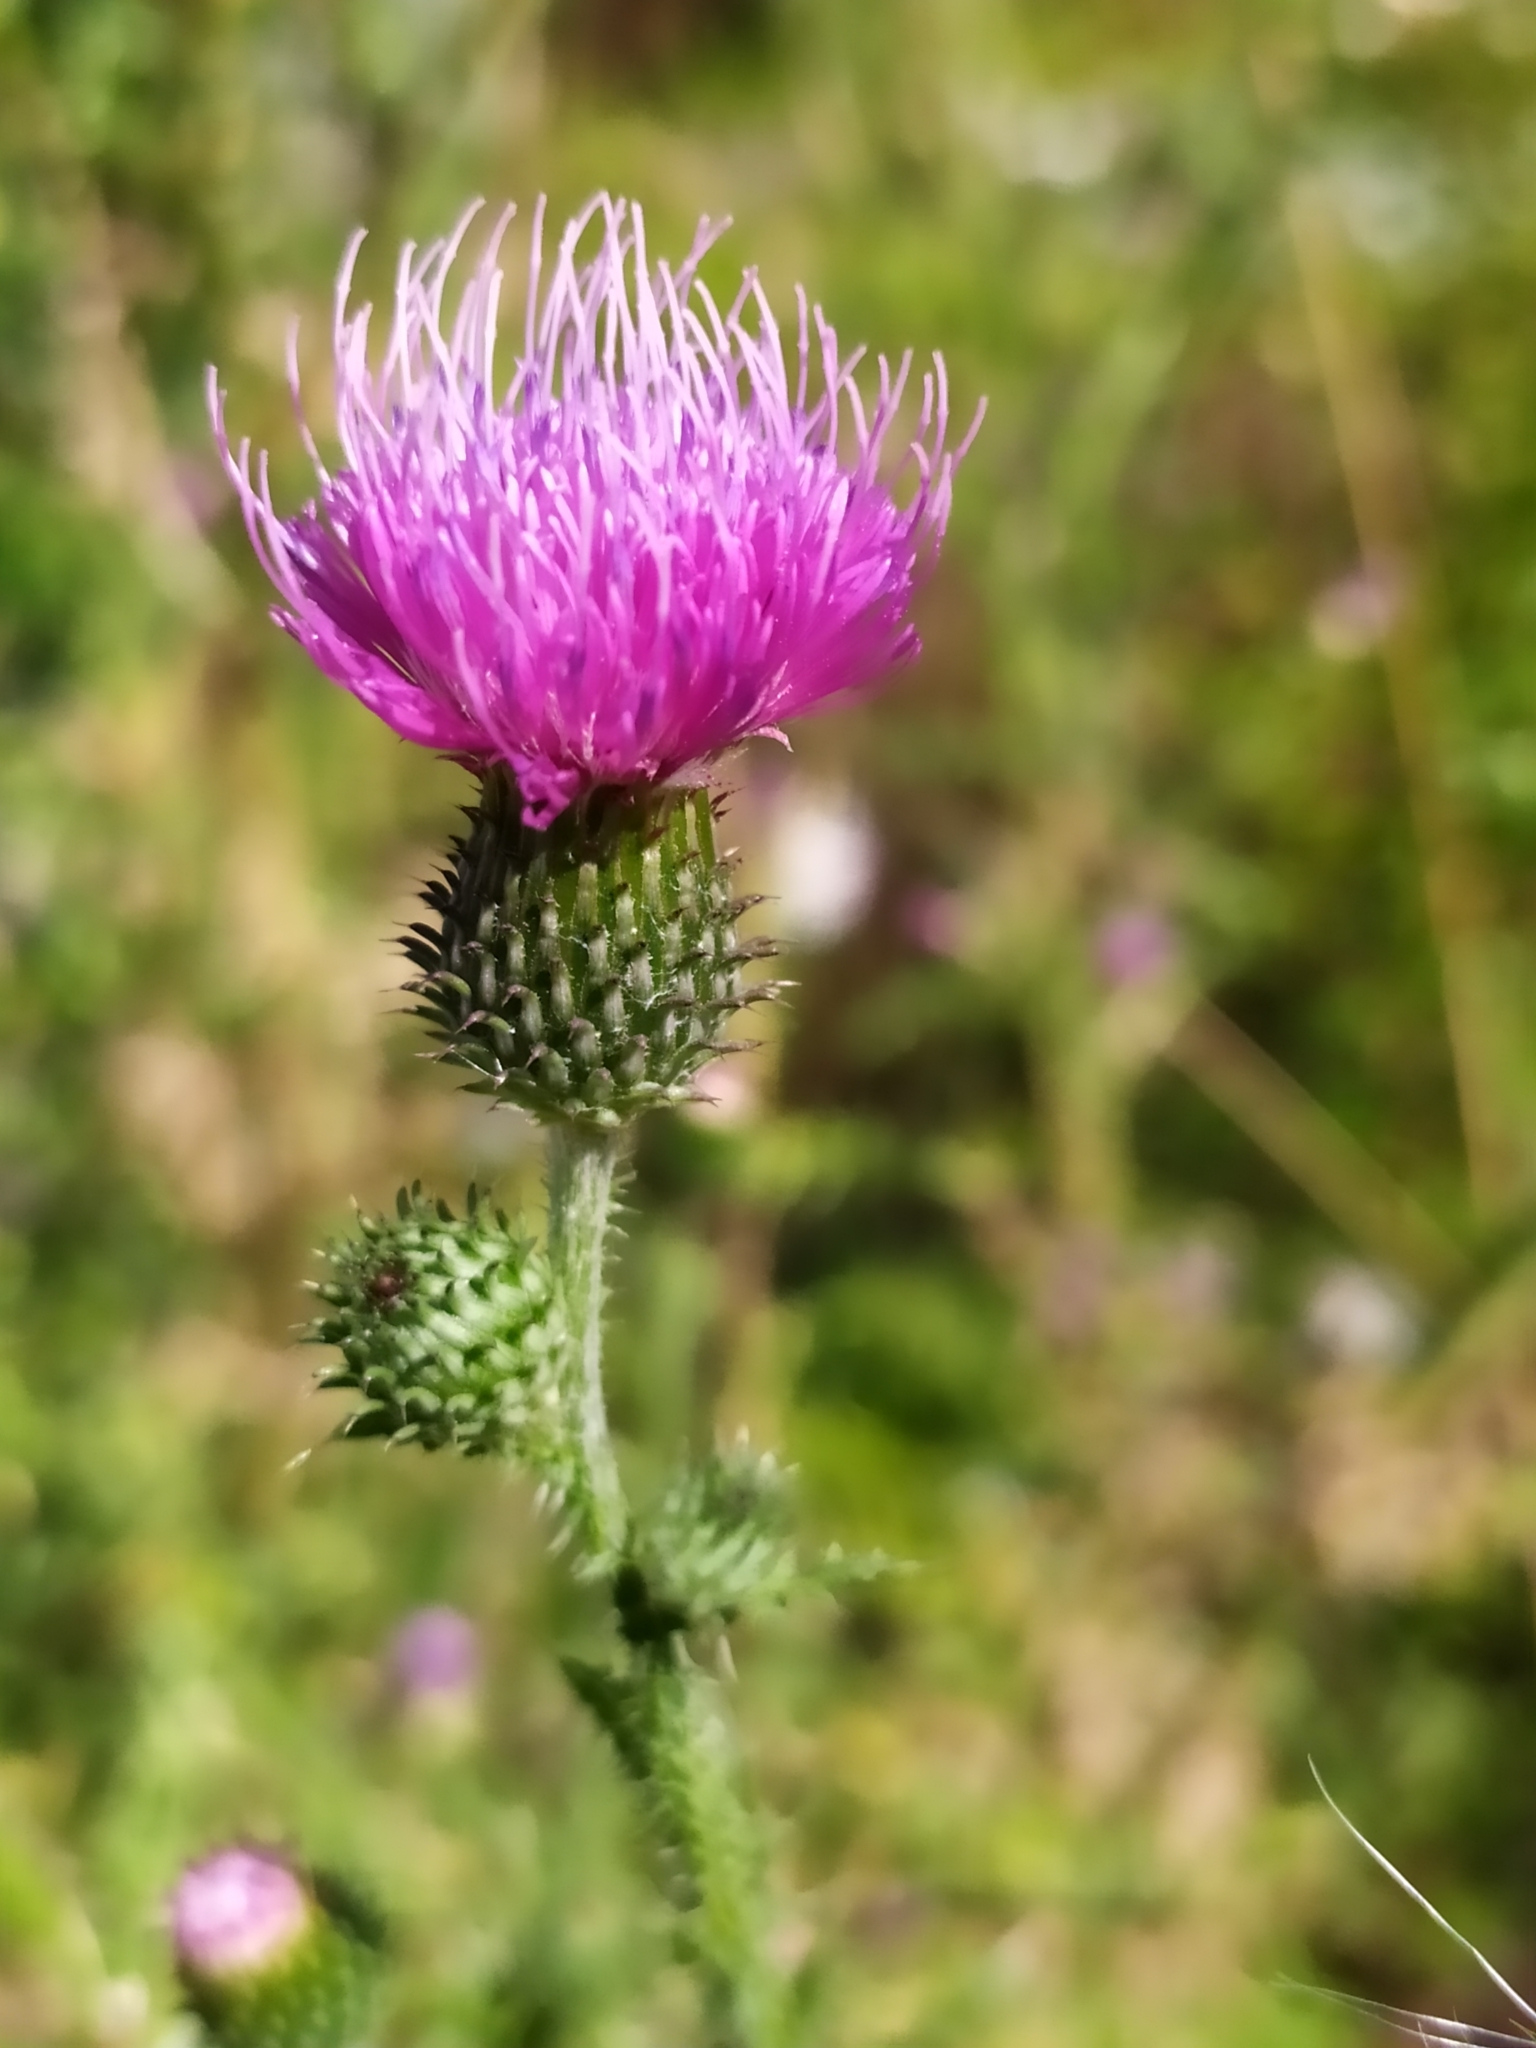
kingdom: Plantae
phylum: Tracheophyta
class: Magnoliopsida
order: Asterales
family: Asteraceae
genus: Carduus
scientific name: Carduus acanthoides
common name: Plumeless thistle
